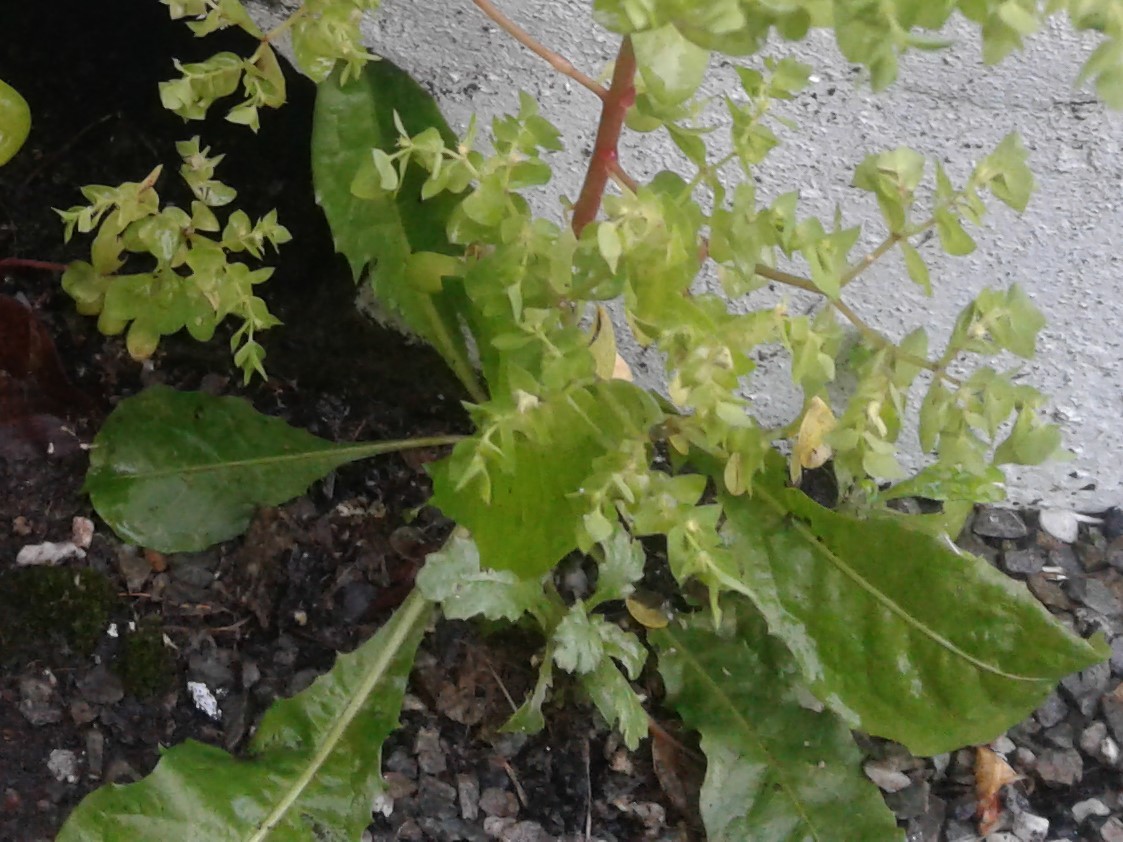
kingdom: Plantae
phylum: Tracheophyta
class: Magnoliopsida
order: Asterales
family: Asteraceae
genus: Taraxacum
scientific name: Taraxacum officinale
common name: Common dandelion
